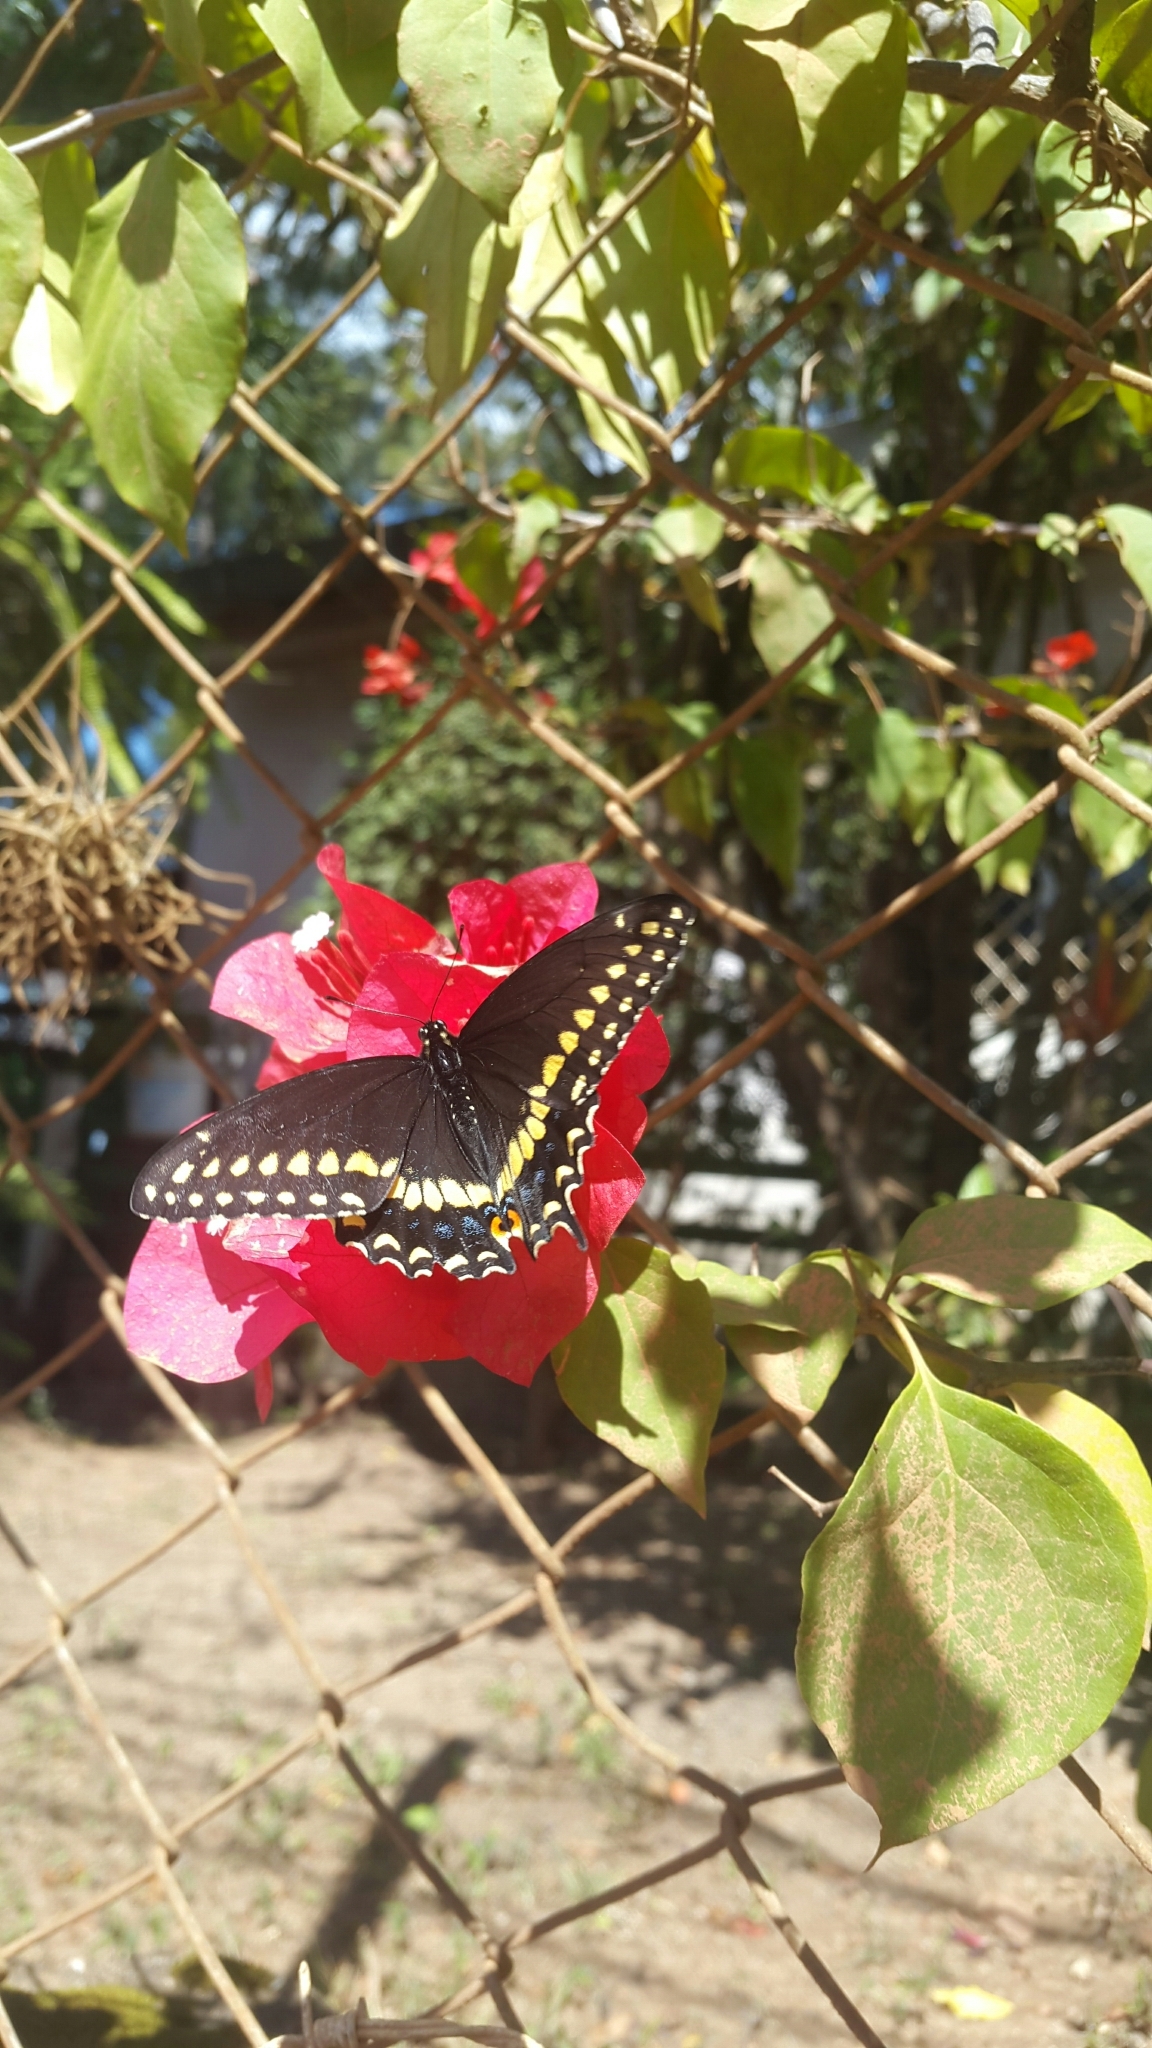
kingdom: Animalia
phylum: Arthropoda
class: Insecta
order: Lepidoptera
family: Papilionidae
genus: Papilio
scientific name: Papilio polyxenes
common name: Black swallowtail
